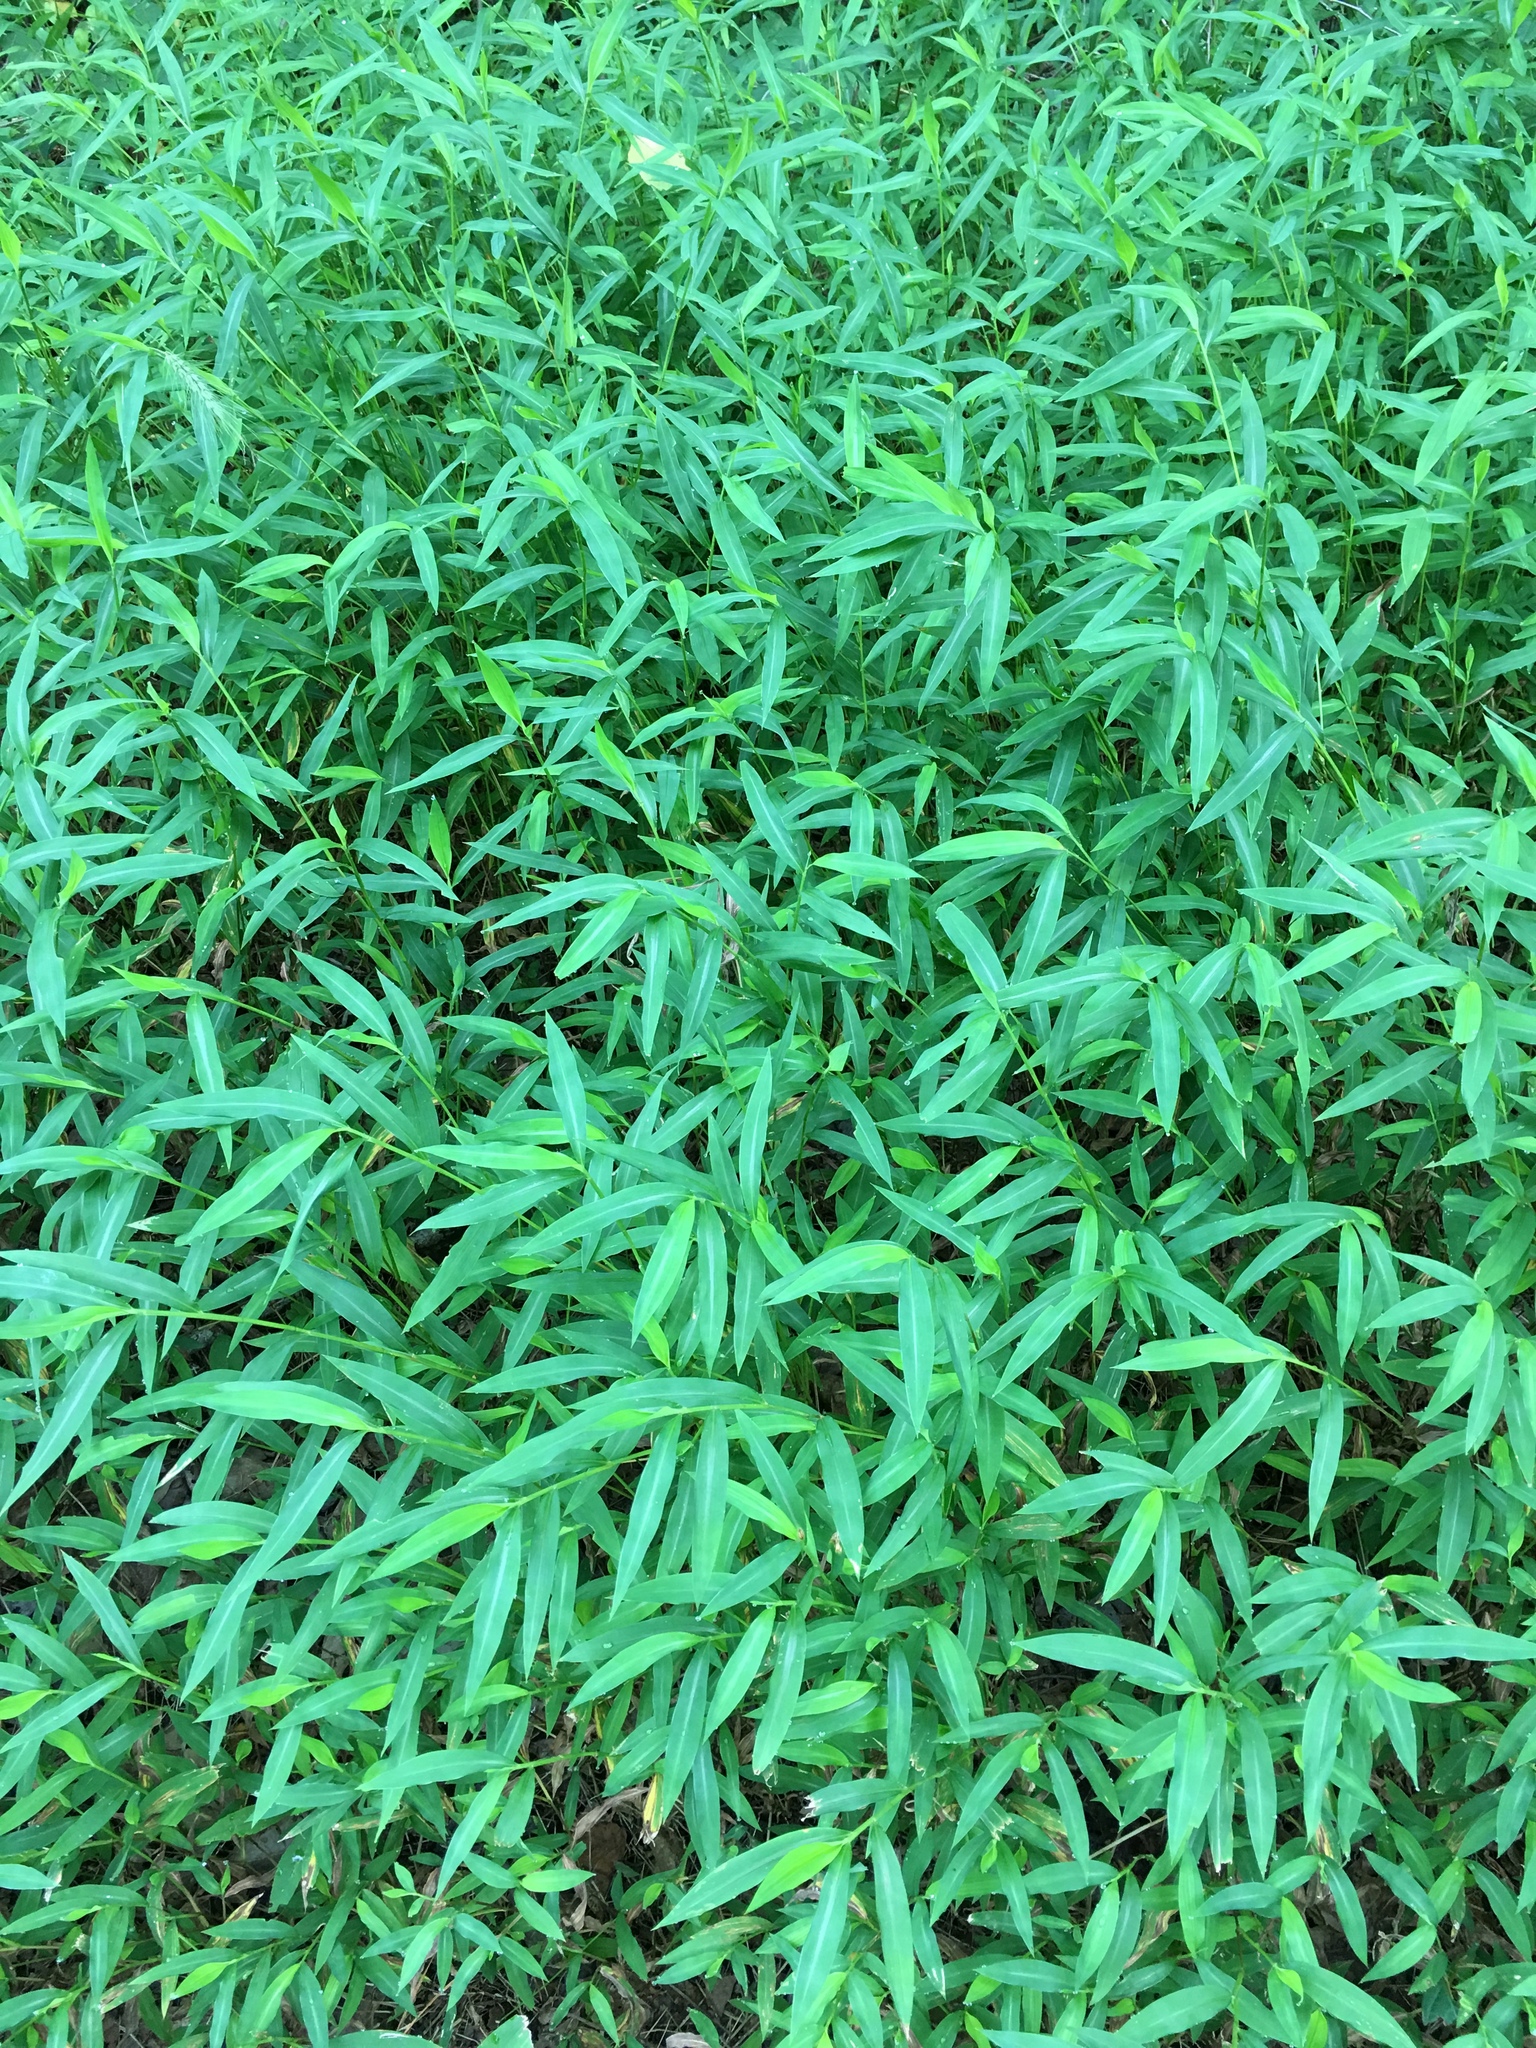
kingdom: Plantae
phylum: Tracheophyta
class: Liliopsida
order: Poales
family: Poaceae
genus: Microstegium
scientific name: Microstegium vimineum
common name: Japanese stiltgrass
